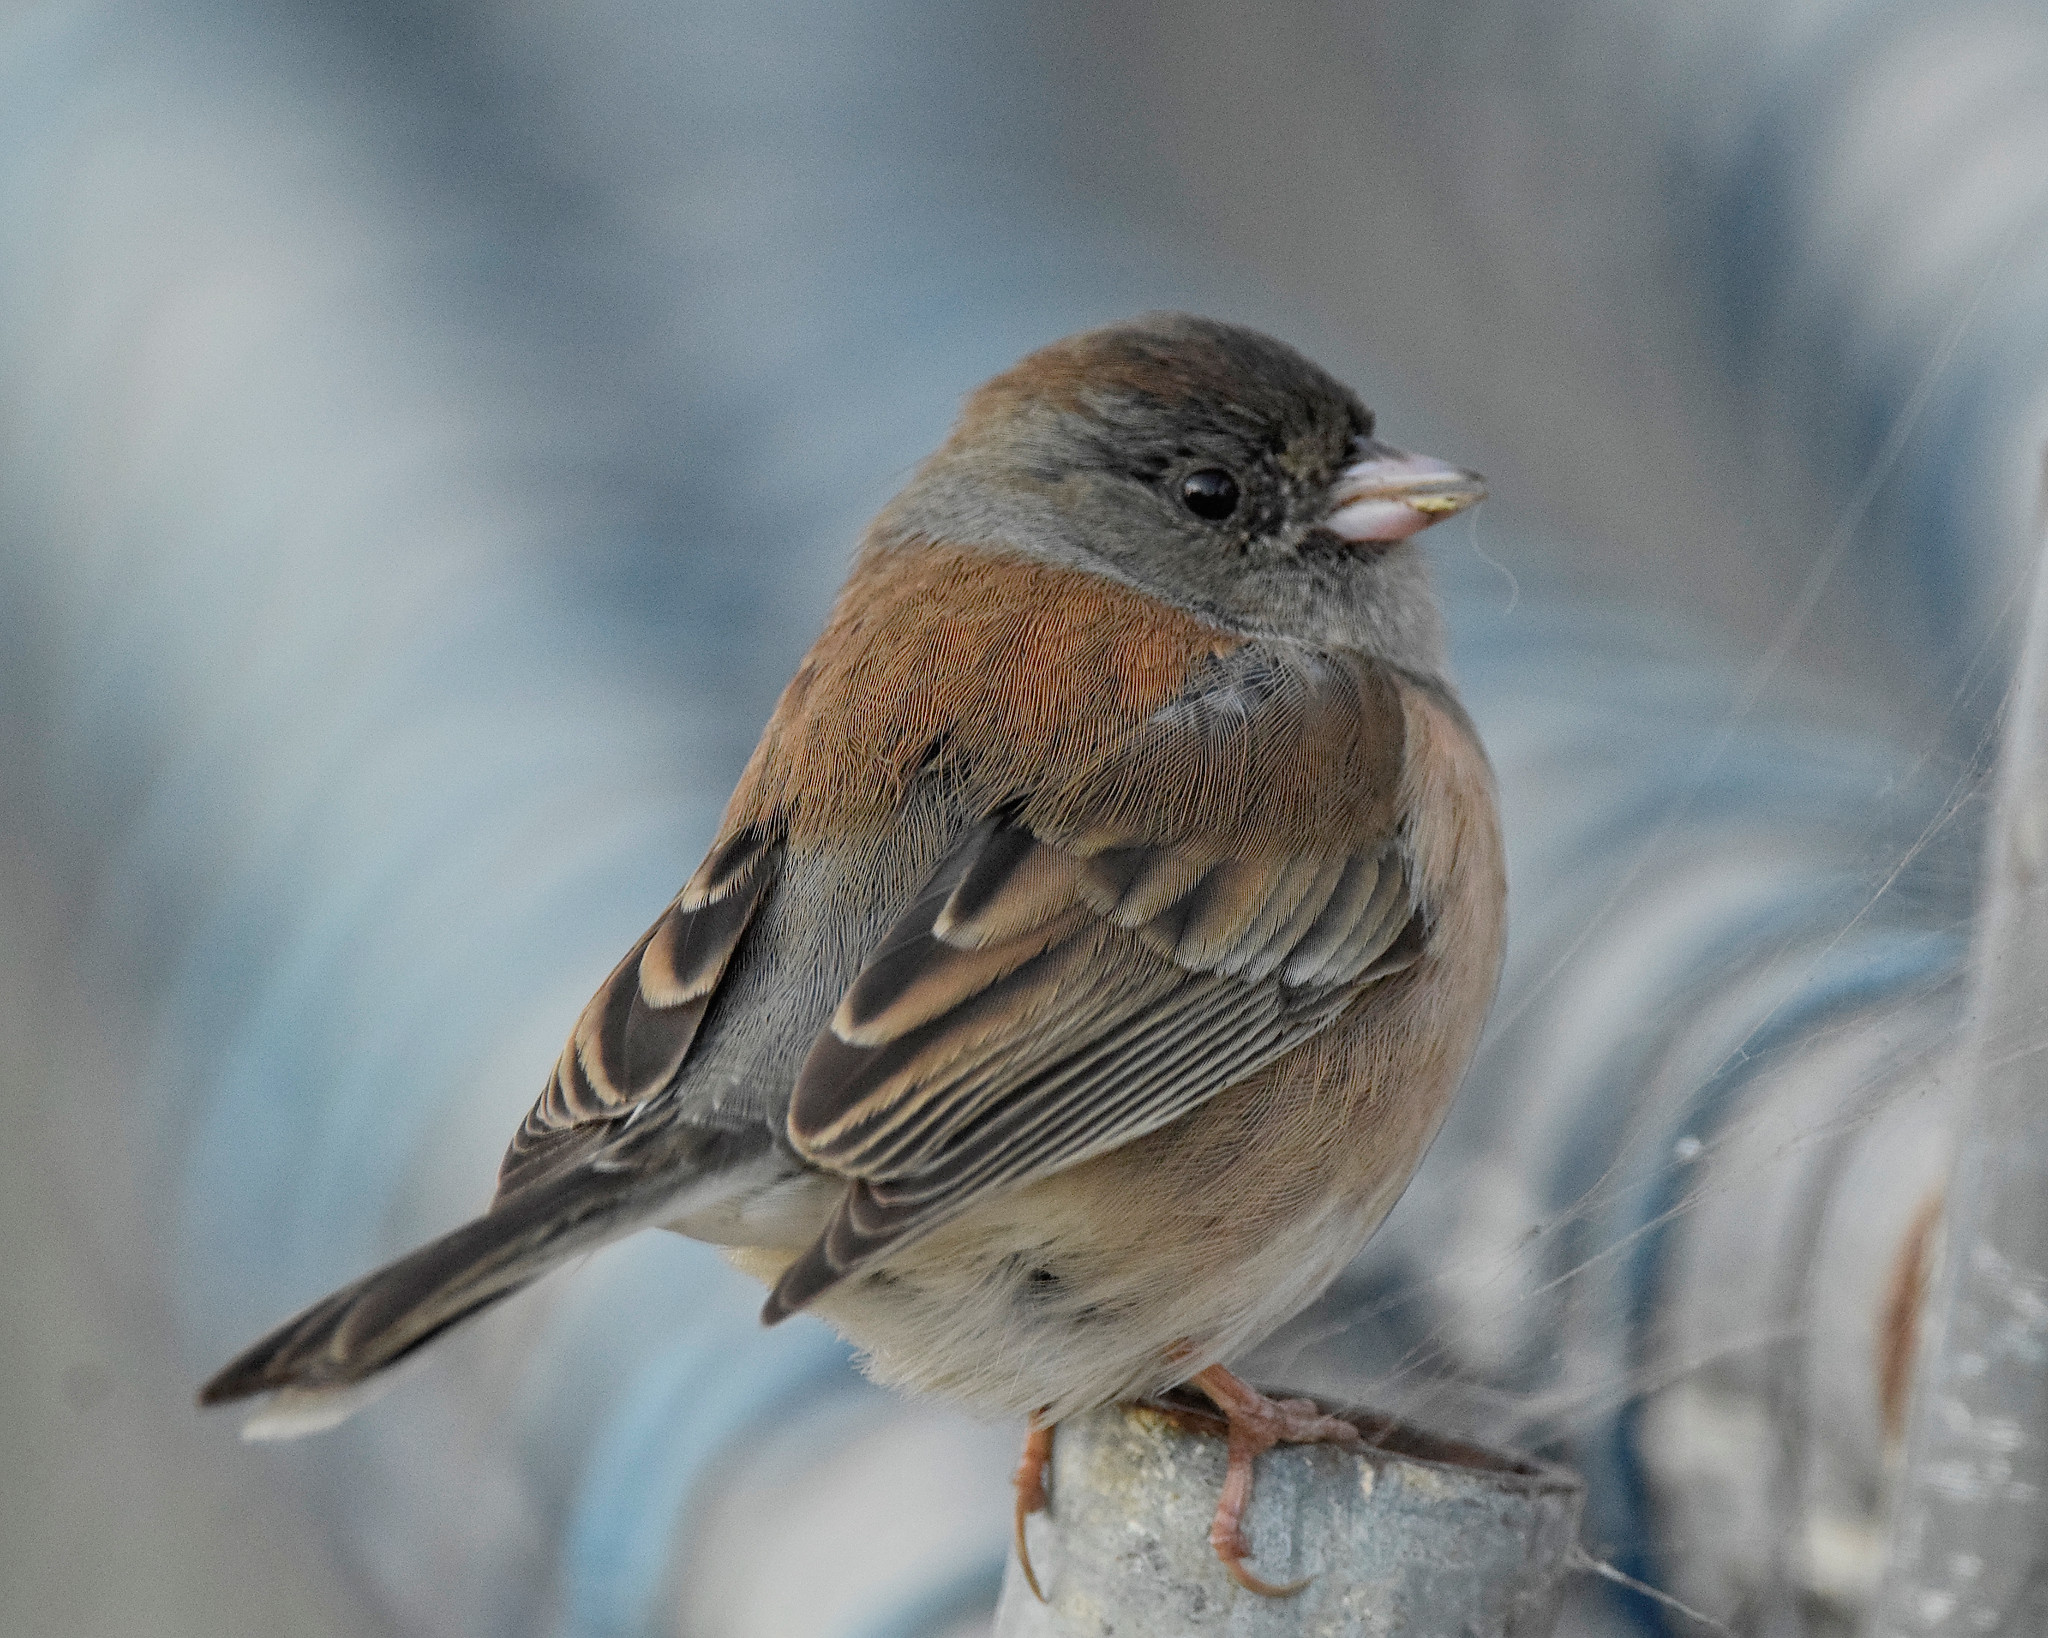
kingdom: Animalia
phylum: Chordata
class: Aves
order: Passeriformes
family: Passerellidae
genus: Junco
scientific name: Junco hyemalis
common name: Dark-eyed junco
